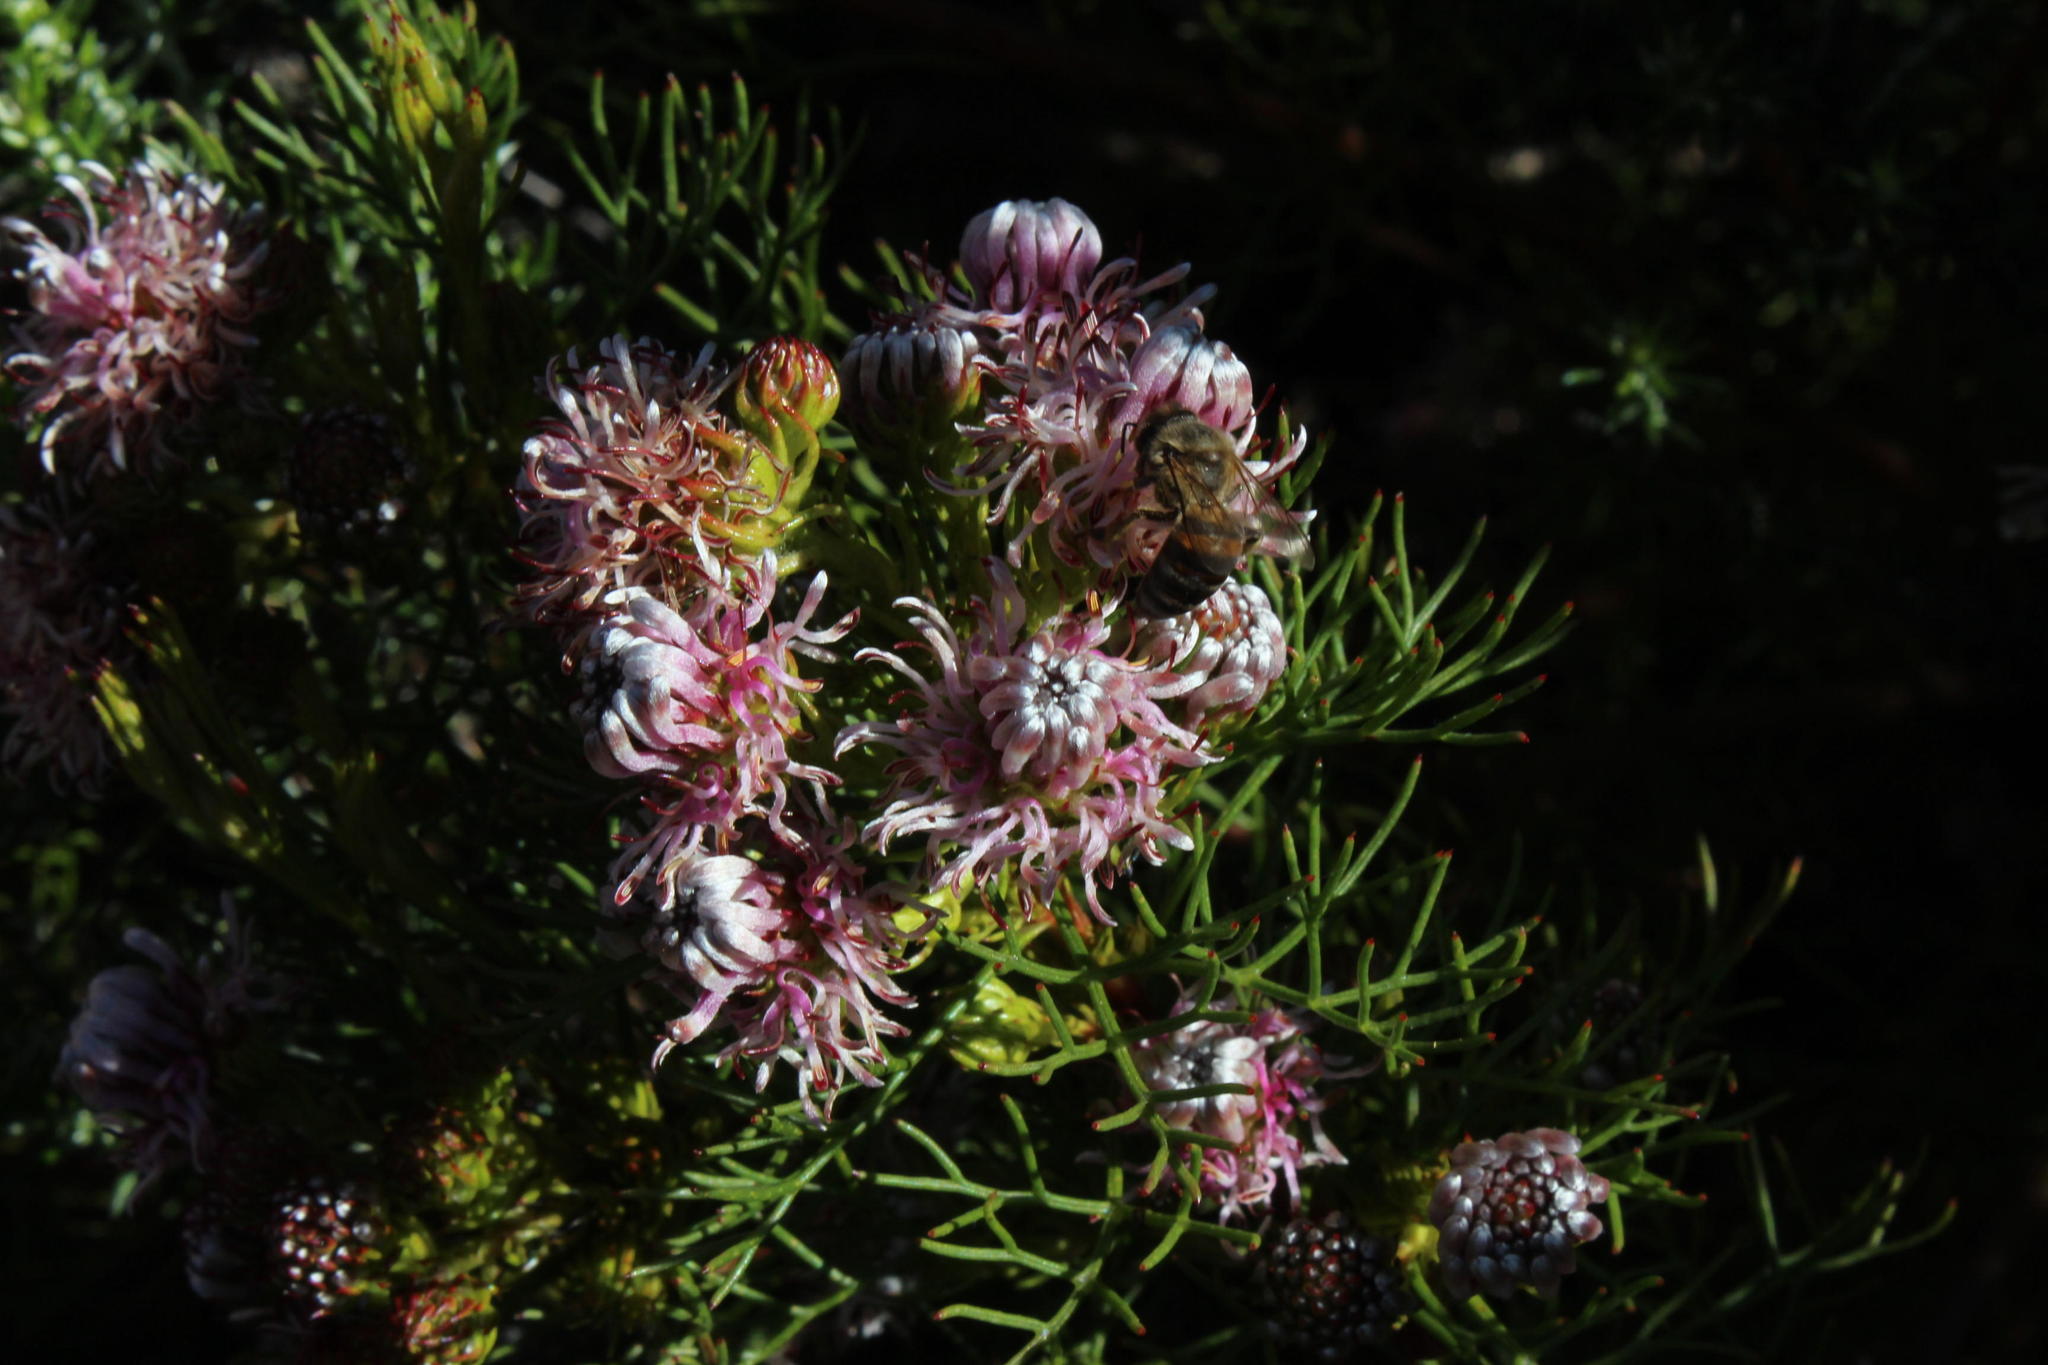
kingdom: Plantae
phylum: Tracheophyta
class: Magnoliopsida
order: Proteales
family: Proteaceae
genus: Serruria
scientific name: Serruria
